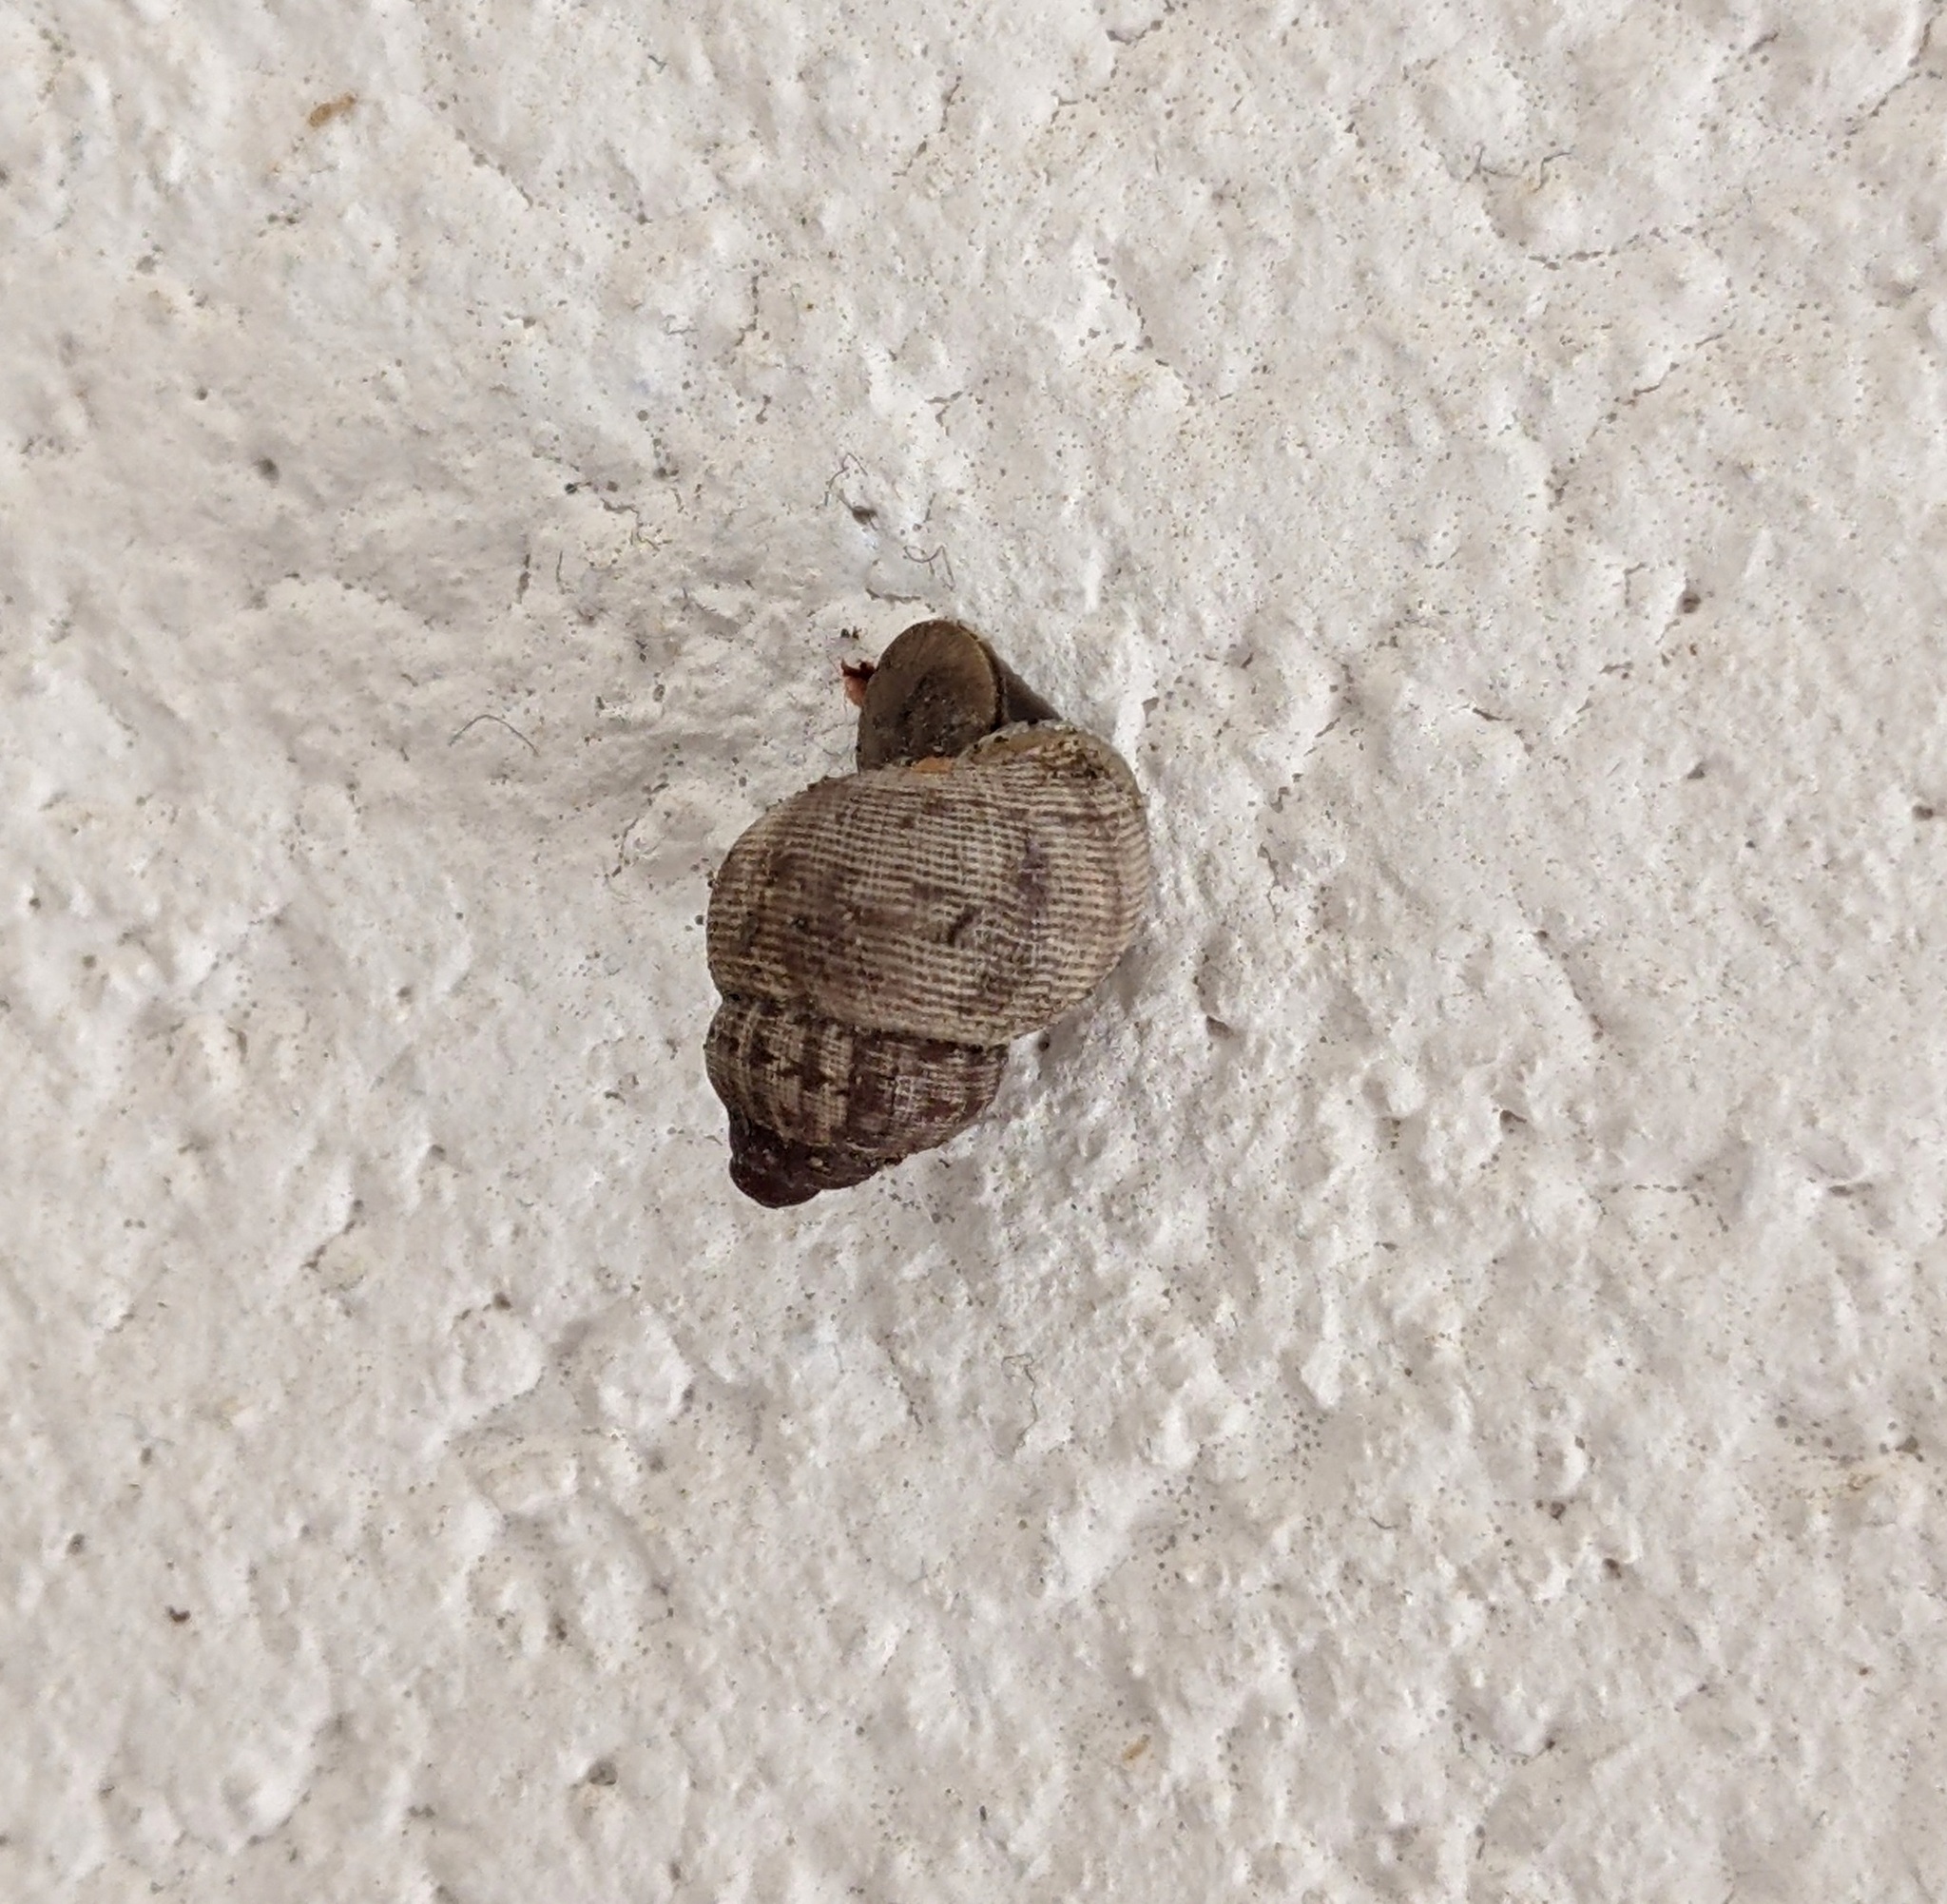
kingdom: Animalia
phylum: Mollusca
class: Gastropoda
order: Littorinimorpha
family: Pomatiidae
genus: Pomatias
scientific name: Pomatias elegans
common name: Red-mouthed snail
